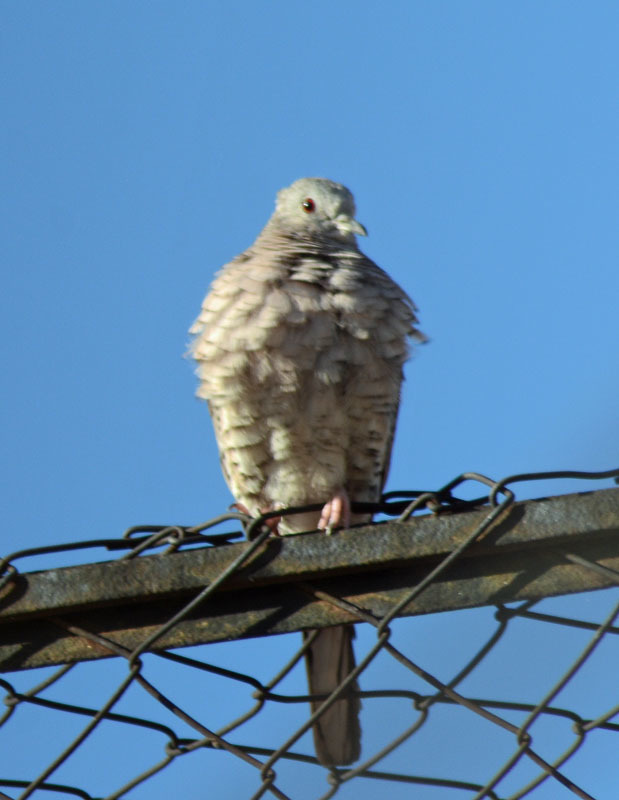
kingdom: Animalia
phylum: Chordata
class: Aves
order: Columbiformes
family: Columbidae
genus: Columbina
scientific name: Columbina inca
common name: Inca dove
